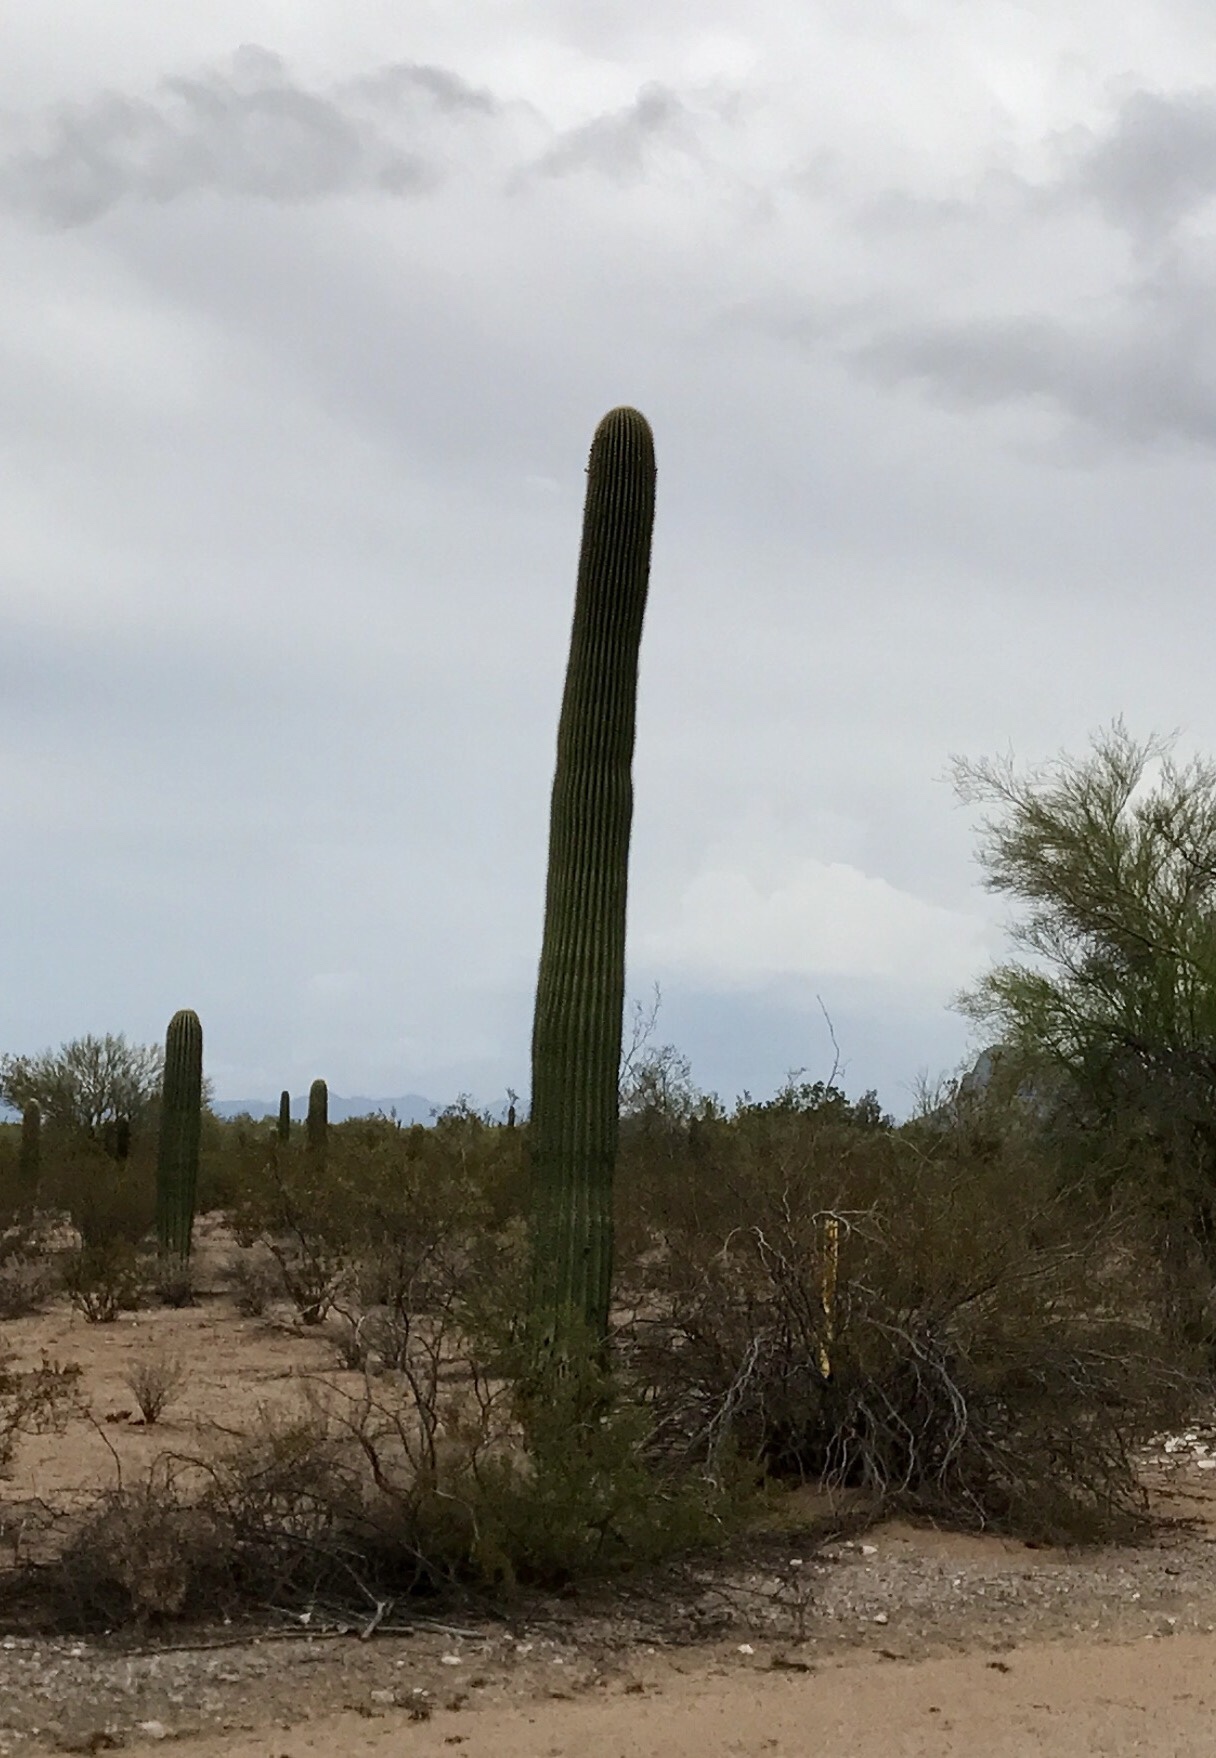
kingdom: Plantae
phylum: Tracheophyta
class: Magnoliopsida
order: Caryophyllales
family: Cactaceae
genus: Carnegiea
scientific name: Carnegiea gigantea
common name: Saguaro
